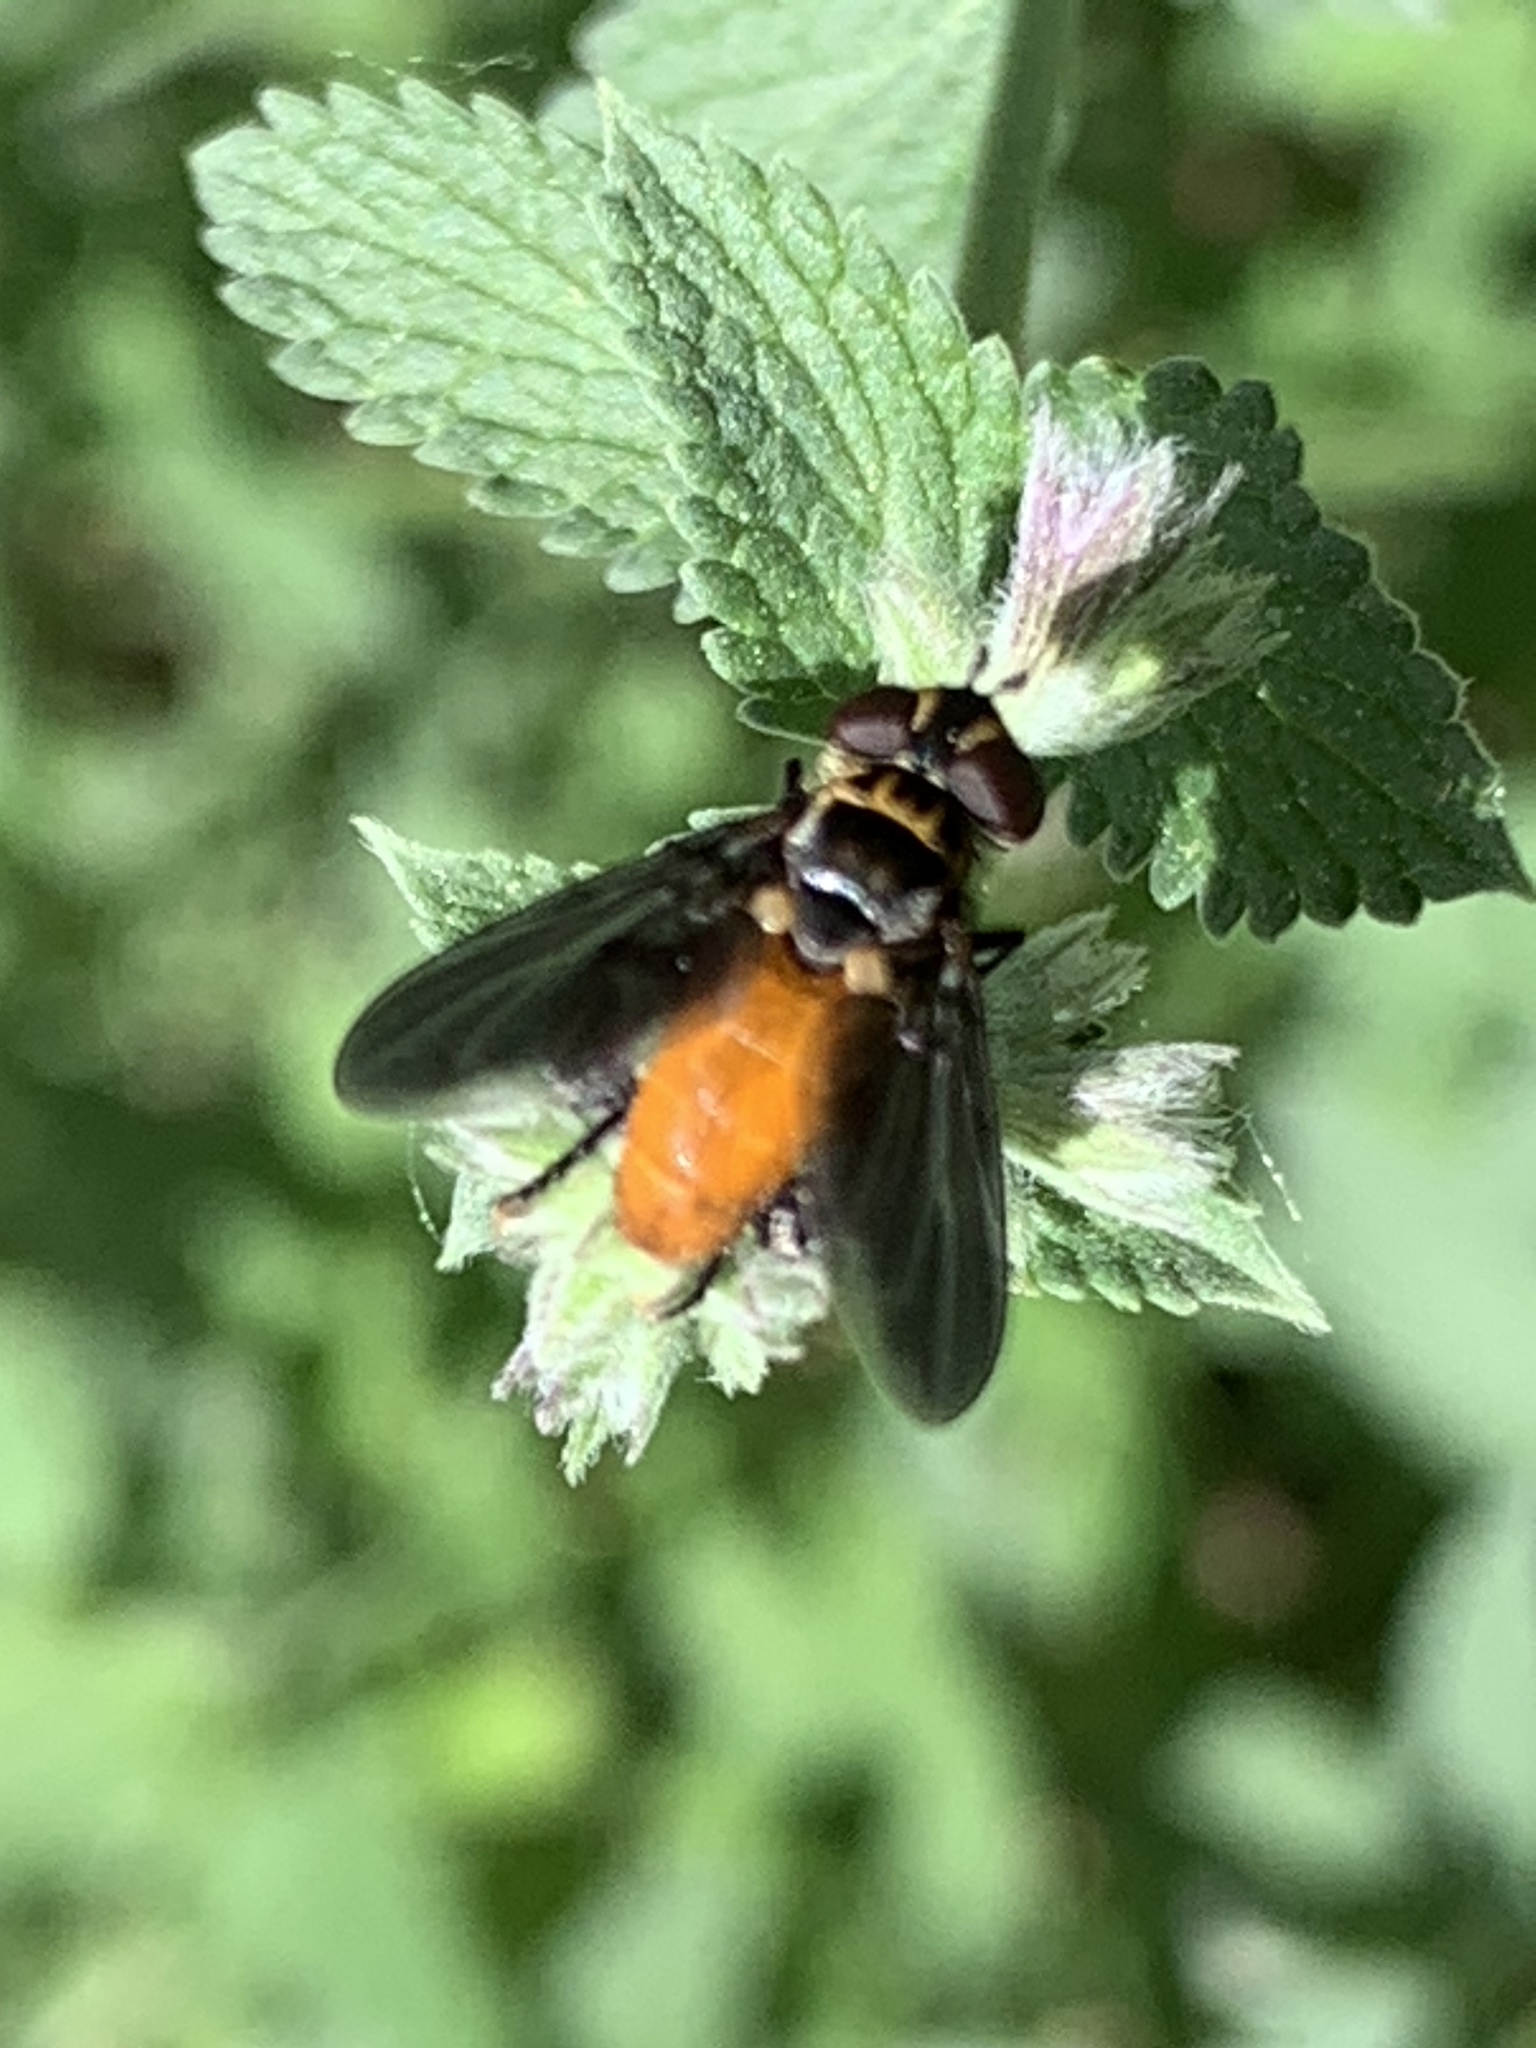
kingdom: Animalia
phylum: Arthropoda
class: Insecta
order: Diptera
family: Tachinidae
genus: Trichopoda
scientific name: Trichopoda pennipes
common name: Tachinid fly
